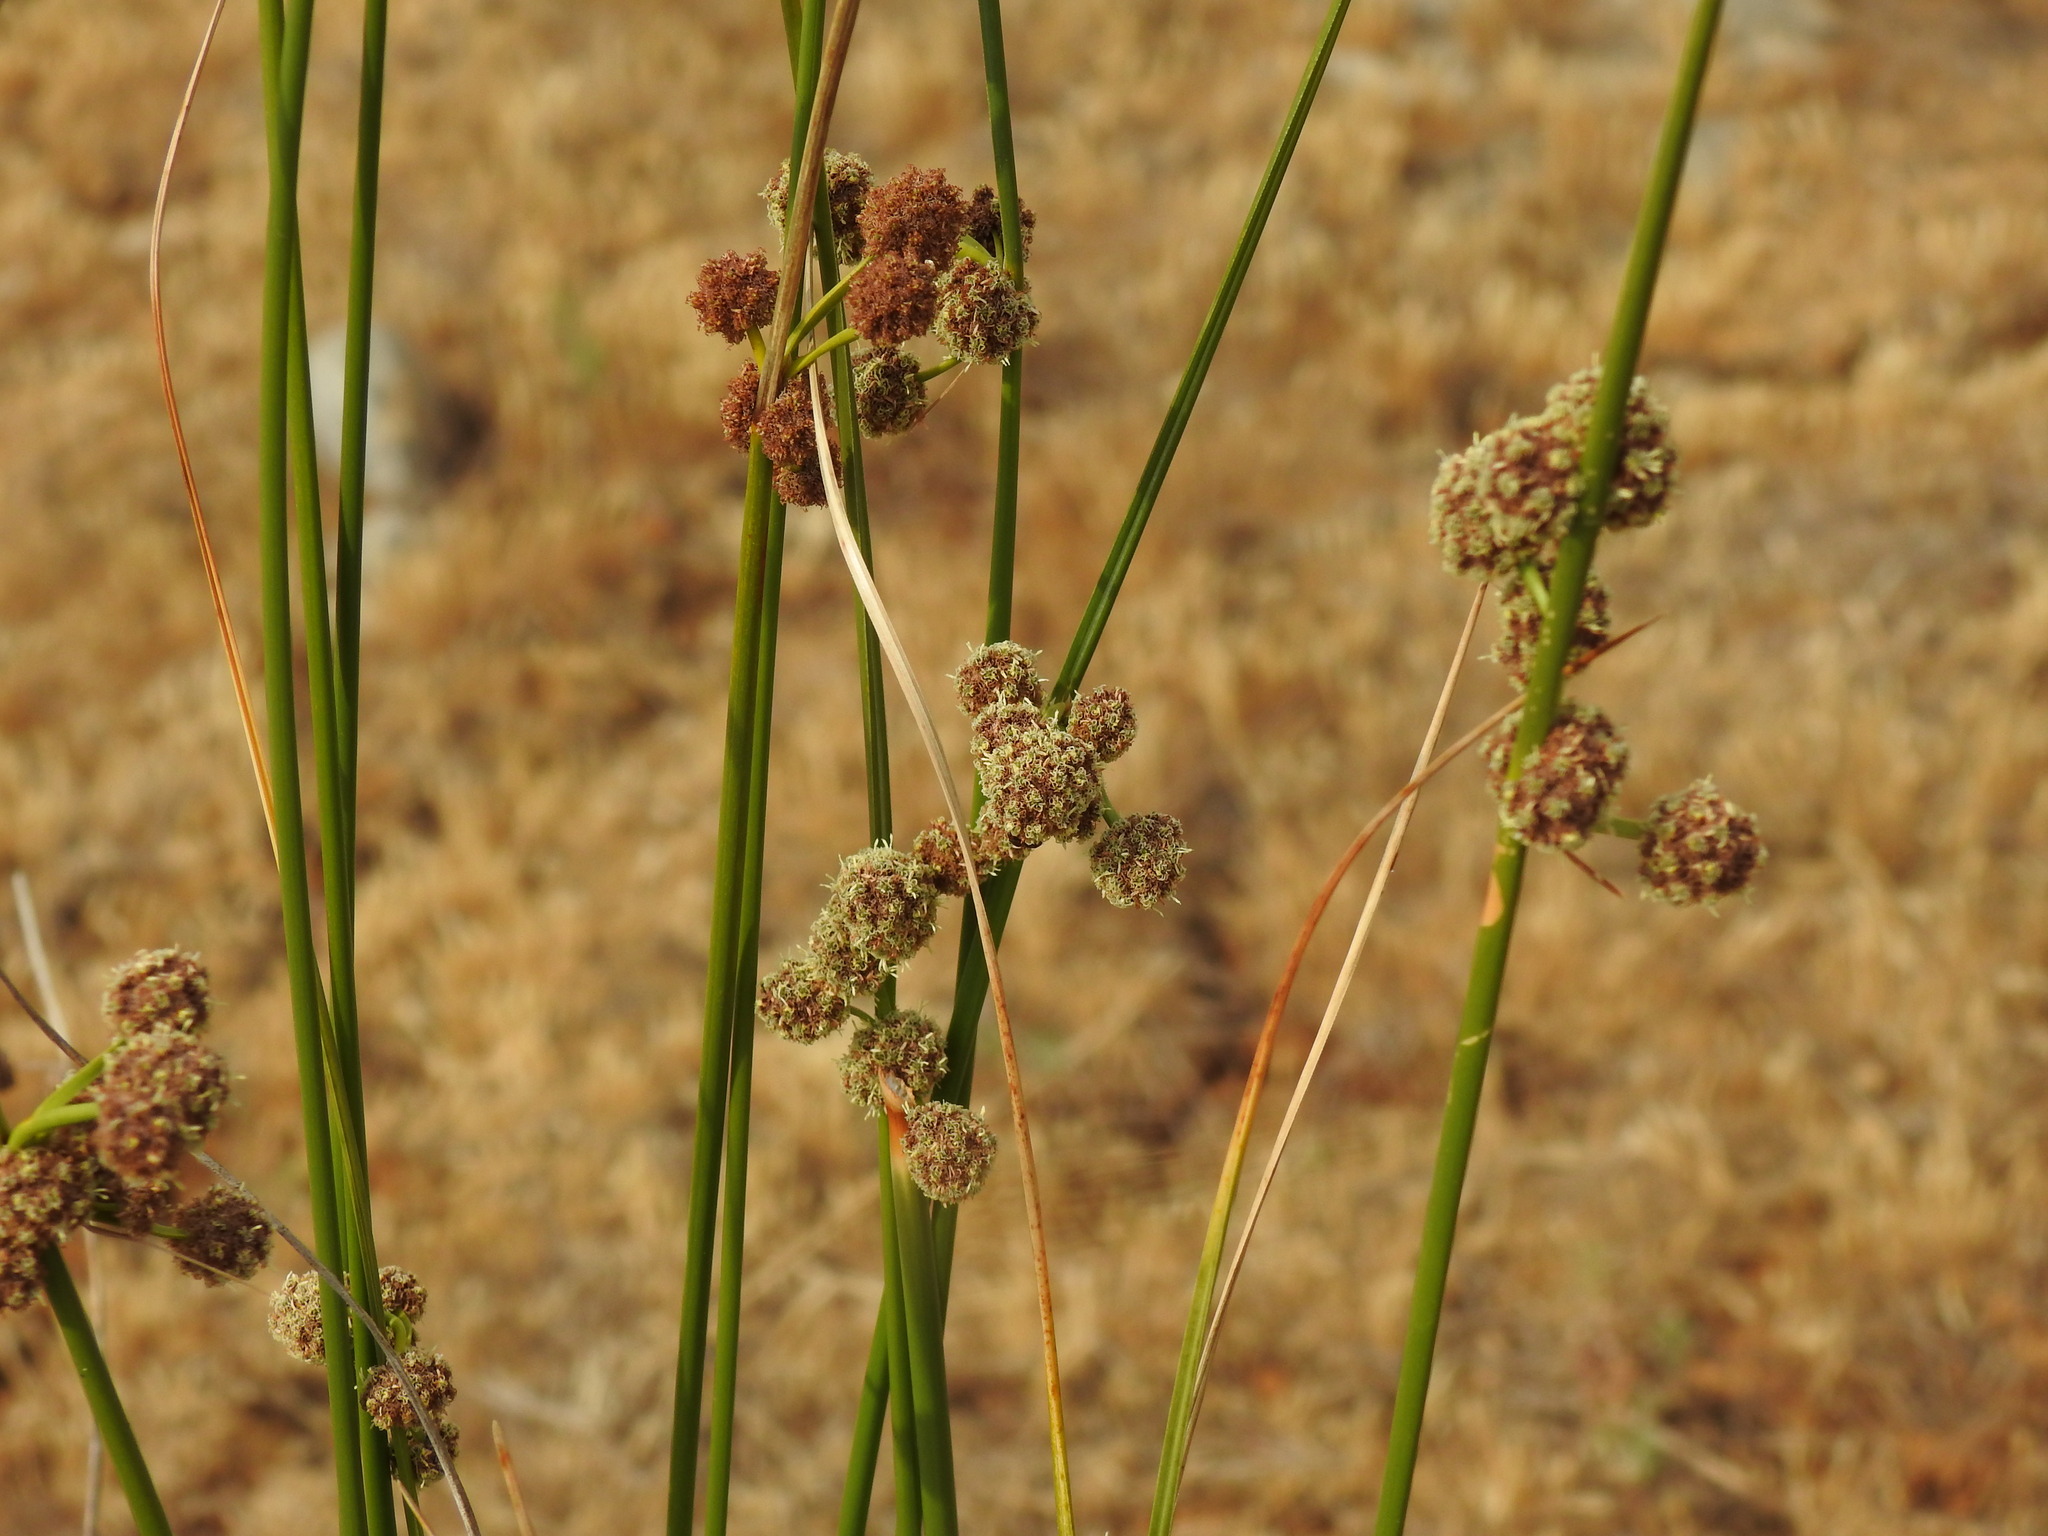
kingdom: Plantae
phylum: Tracheophyta
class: Liliopsida
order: Poales
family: Cyperaceae
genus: Scirpoides
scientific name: Scirpoides holoschoenus
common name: Round-headed club-rush
